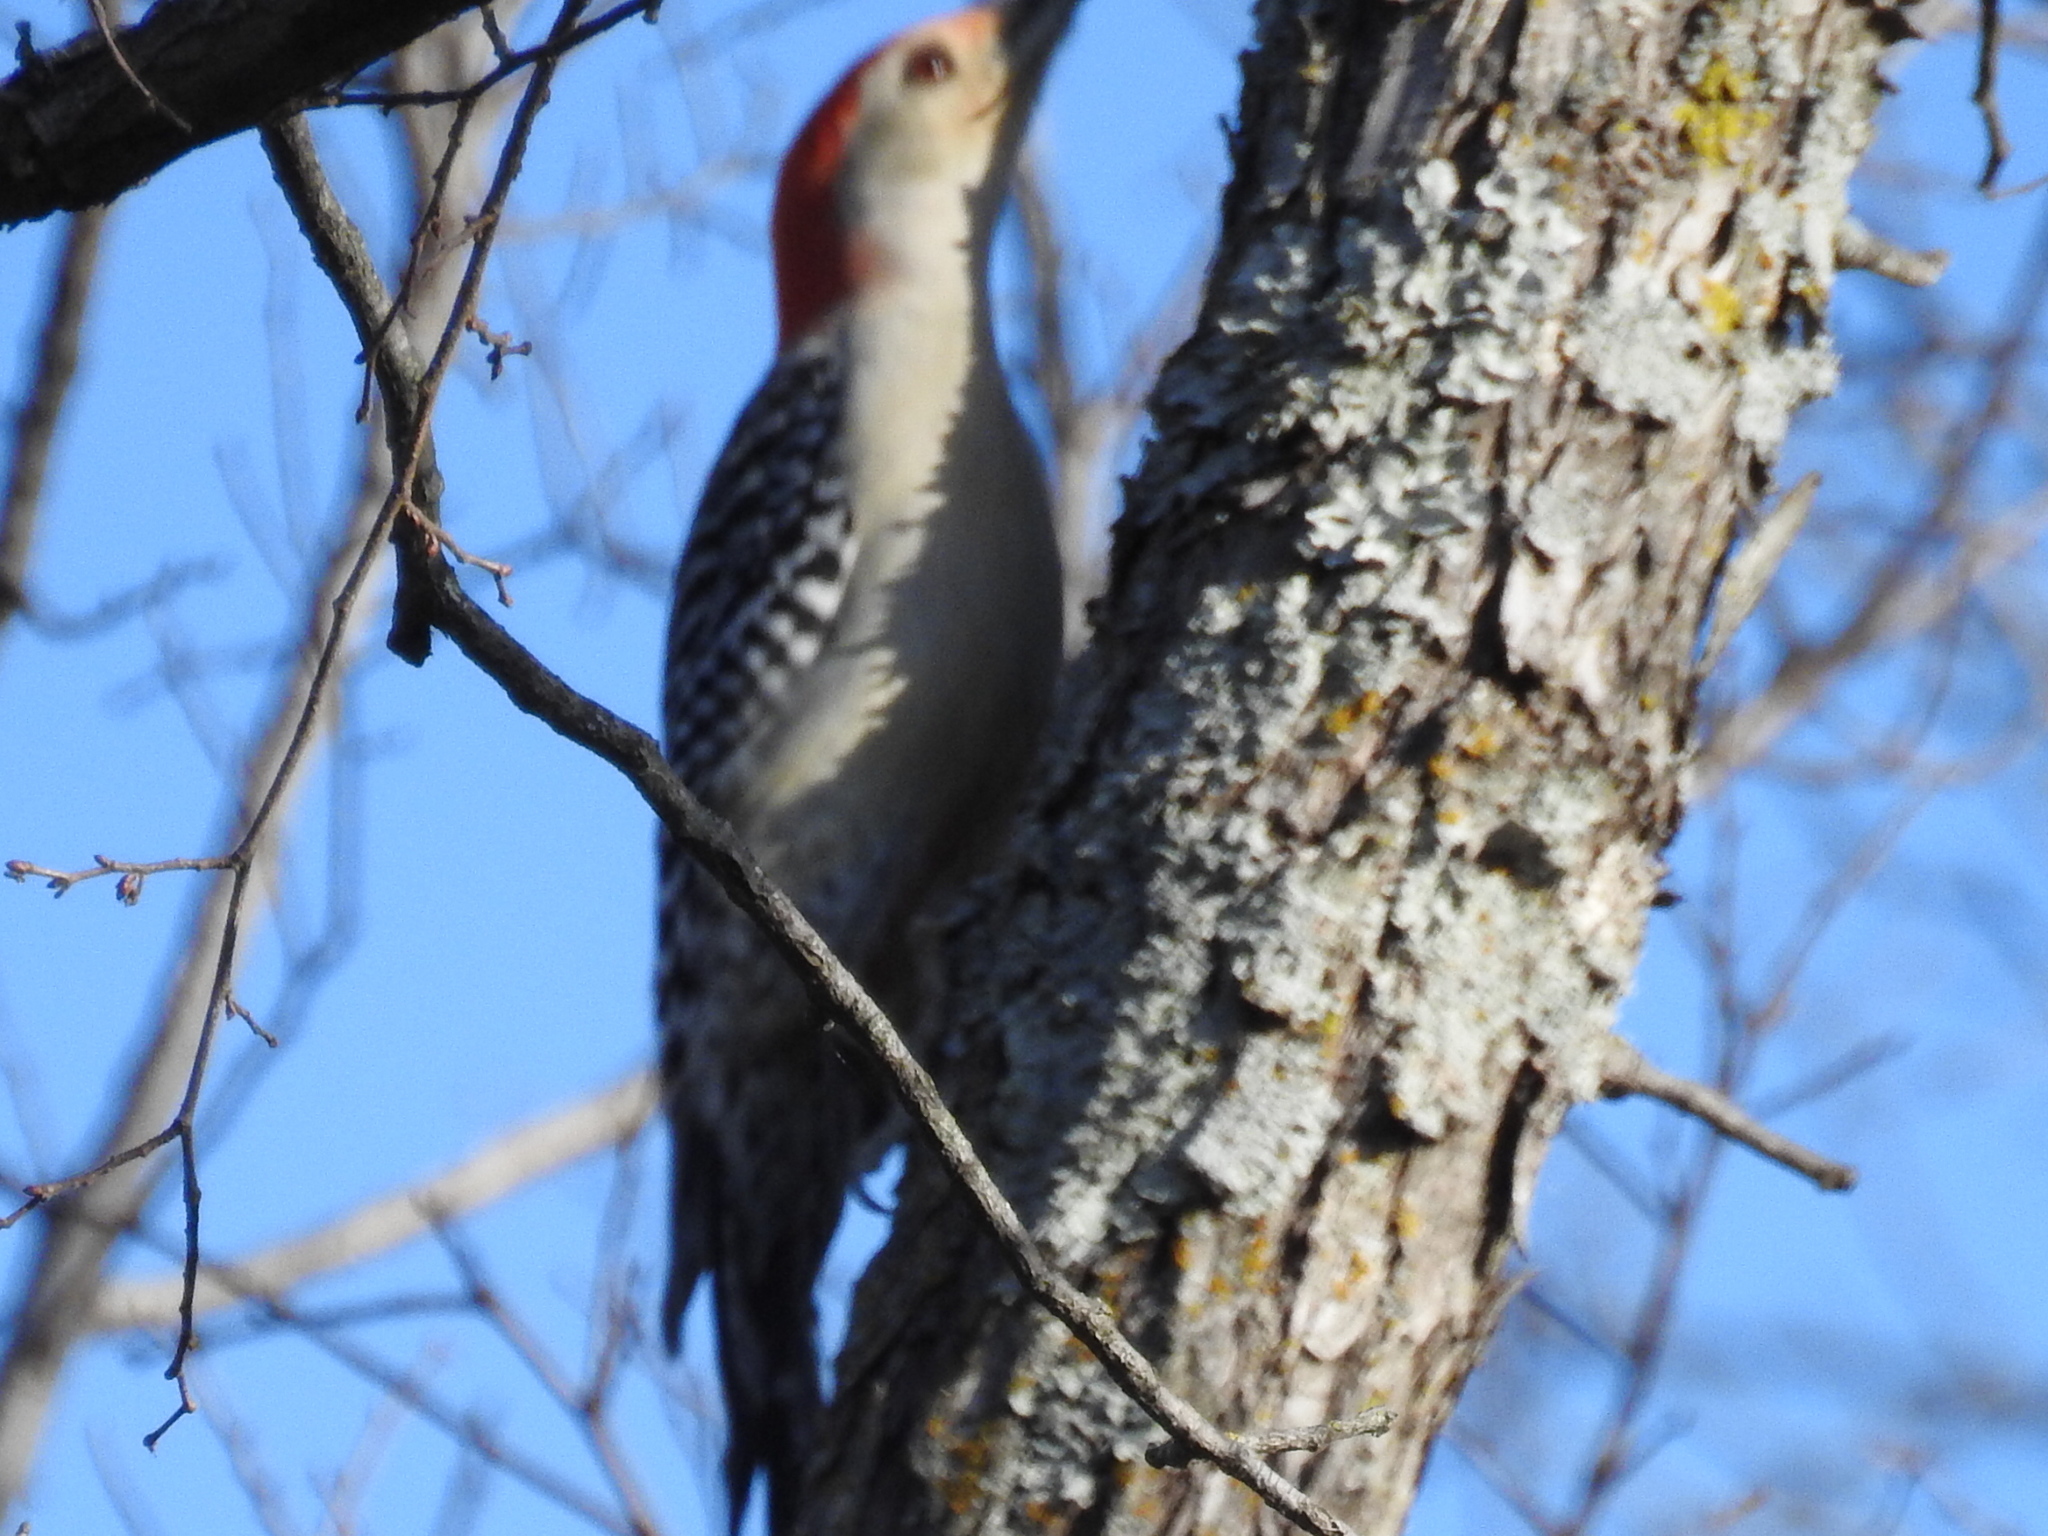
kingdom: Animalia
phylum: Chordata
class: Aves
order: Piciformes
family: Picidae
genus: Melanerpes
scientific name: Melanerpes carolinus
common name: Red-bellied woodpecker
